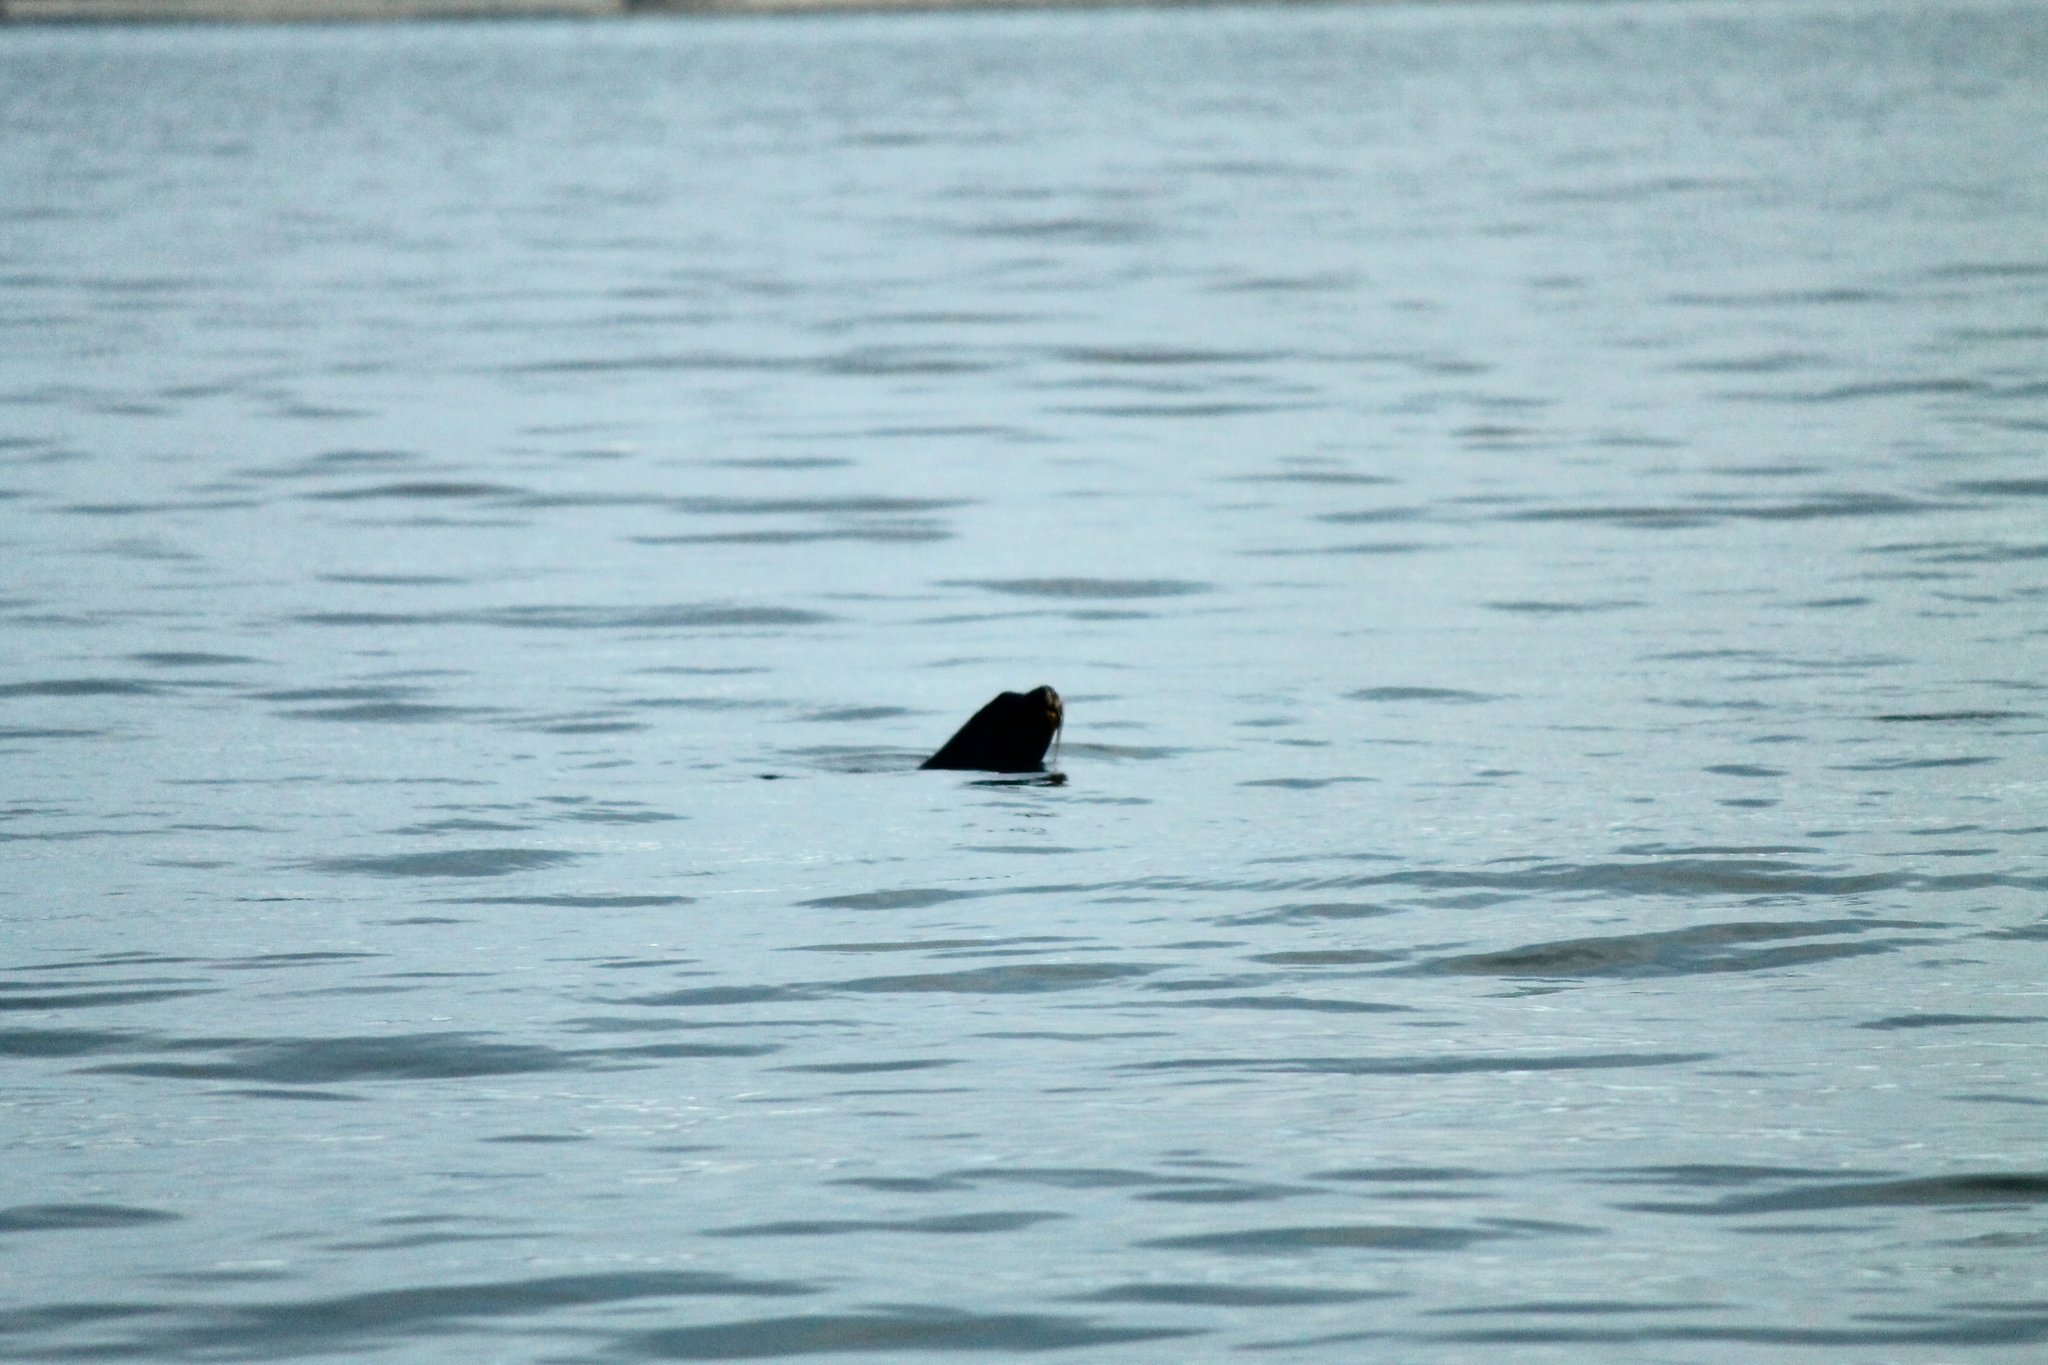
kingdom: Animalia
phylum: Chordata
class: Mammalia
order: Carnivora
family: Otariidae
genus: Otaria
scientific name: Otaria byronia
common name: South american sea lion
